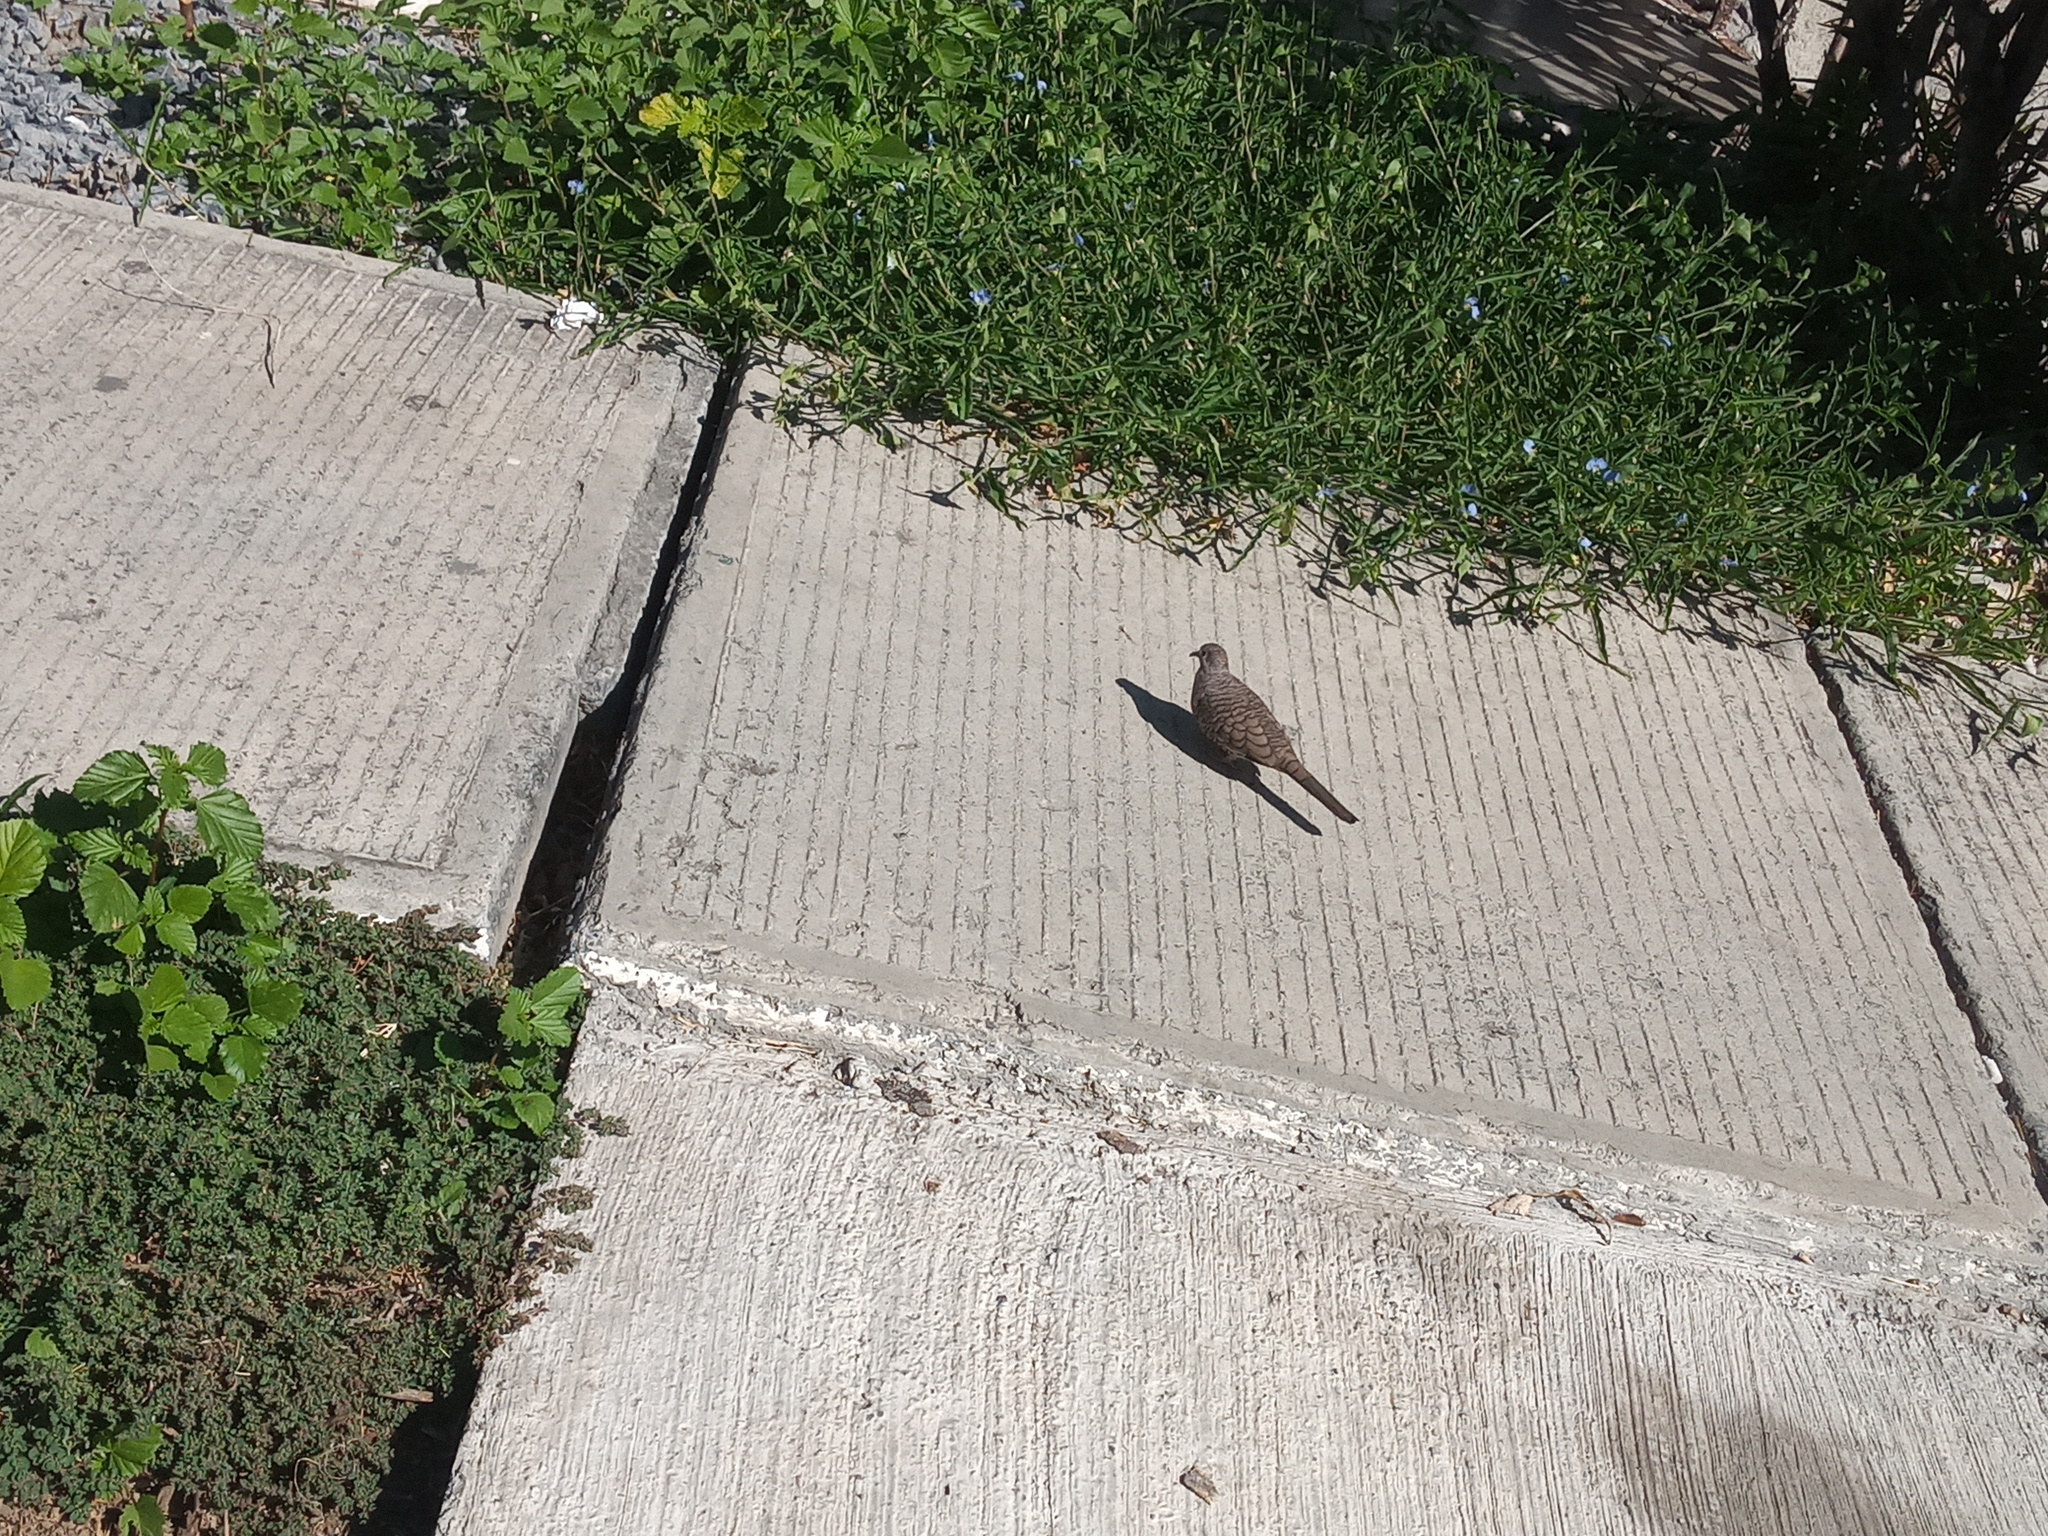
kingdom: Animalia
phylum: Chordata
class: Aves
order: Columbiformes
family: Columbidae
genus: Columbina
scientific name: Columbina inca
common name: Inca dove
